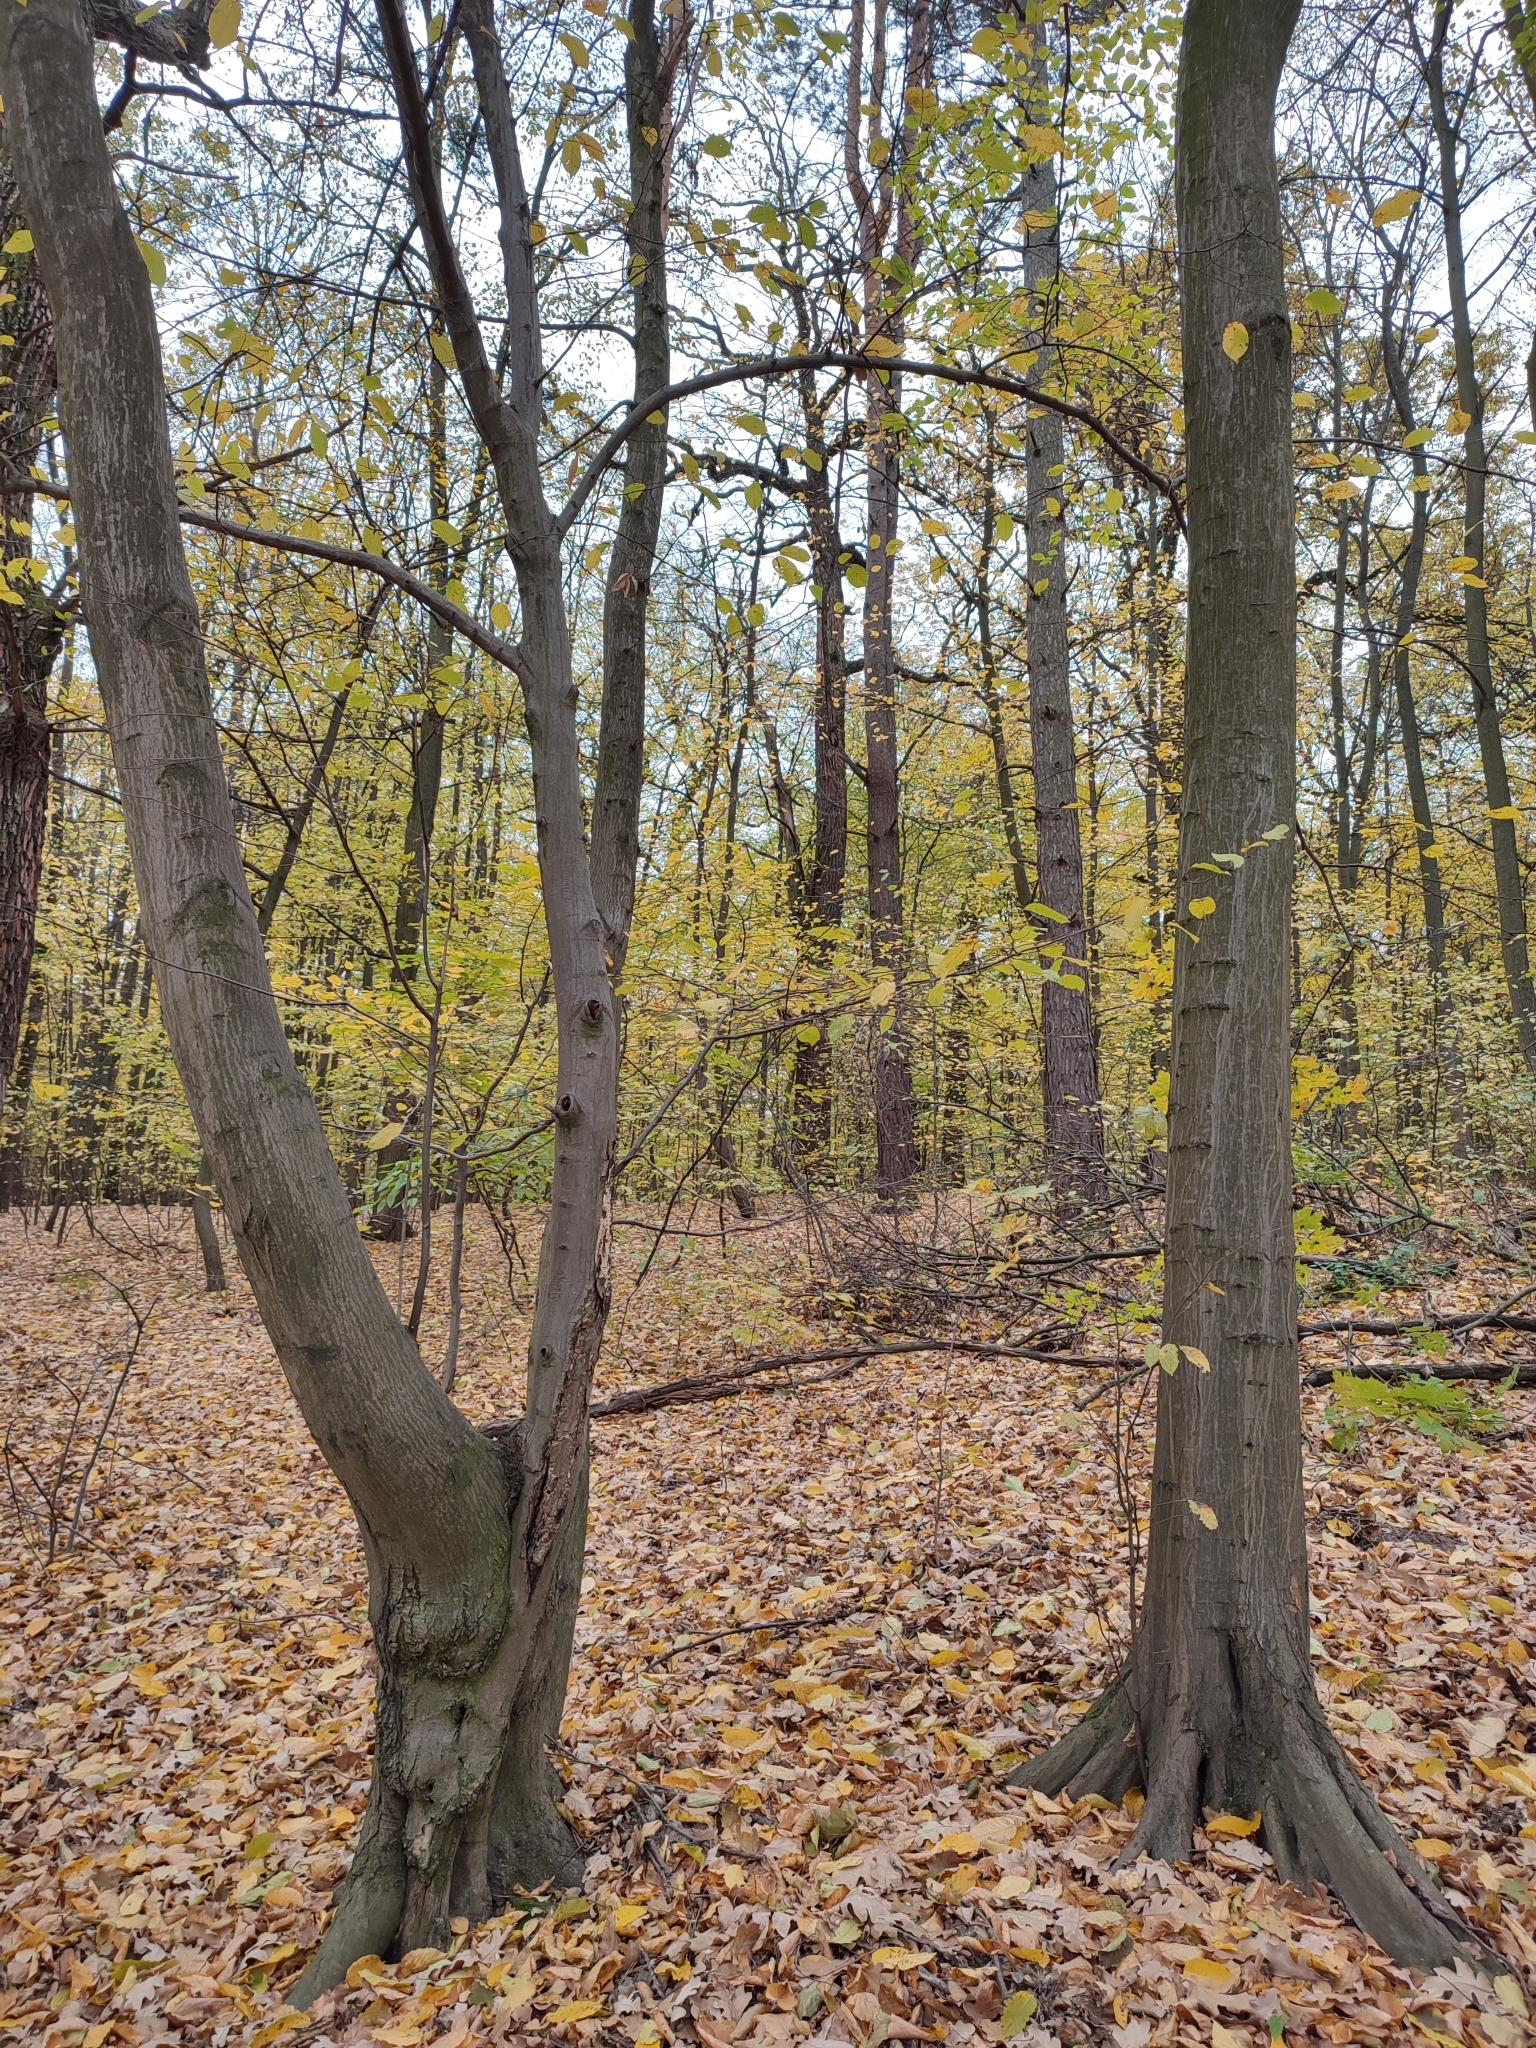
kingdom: Plantae
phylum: Tracheophyta
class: Magnoliopsida
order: Fagales
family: Betulaceae
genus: Carpinus
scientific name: Carpinus betulus
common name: Hornbeam
